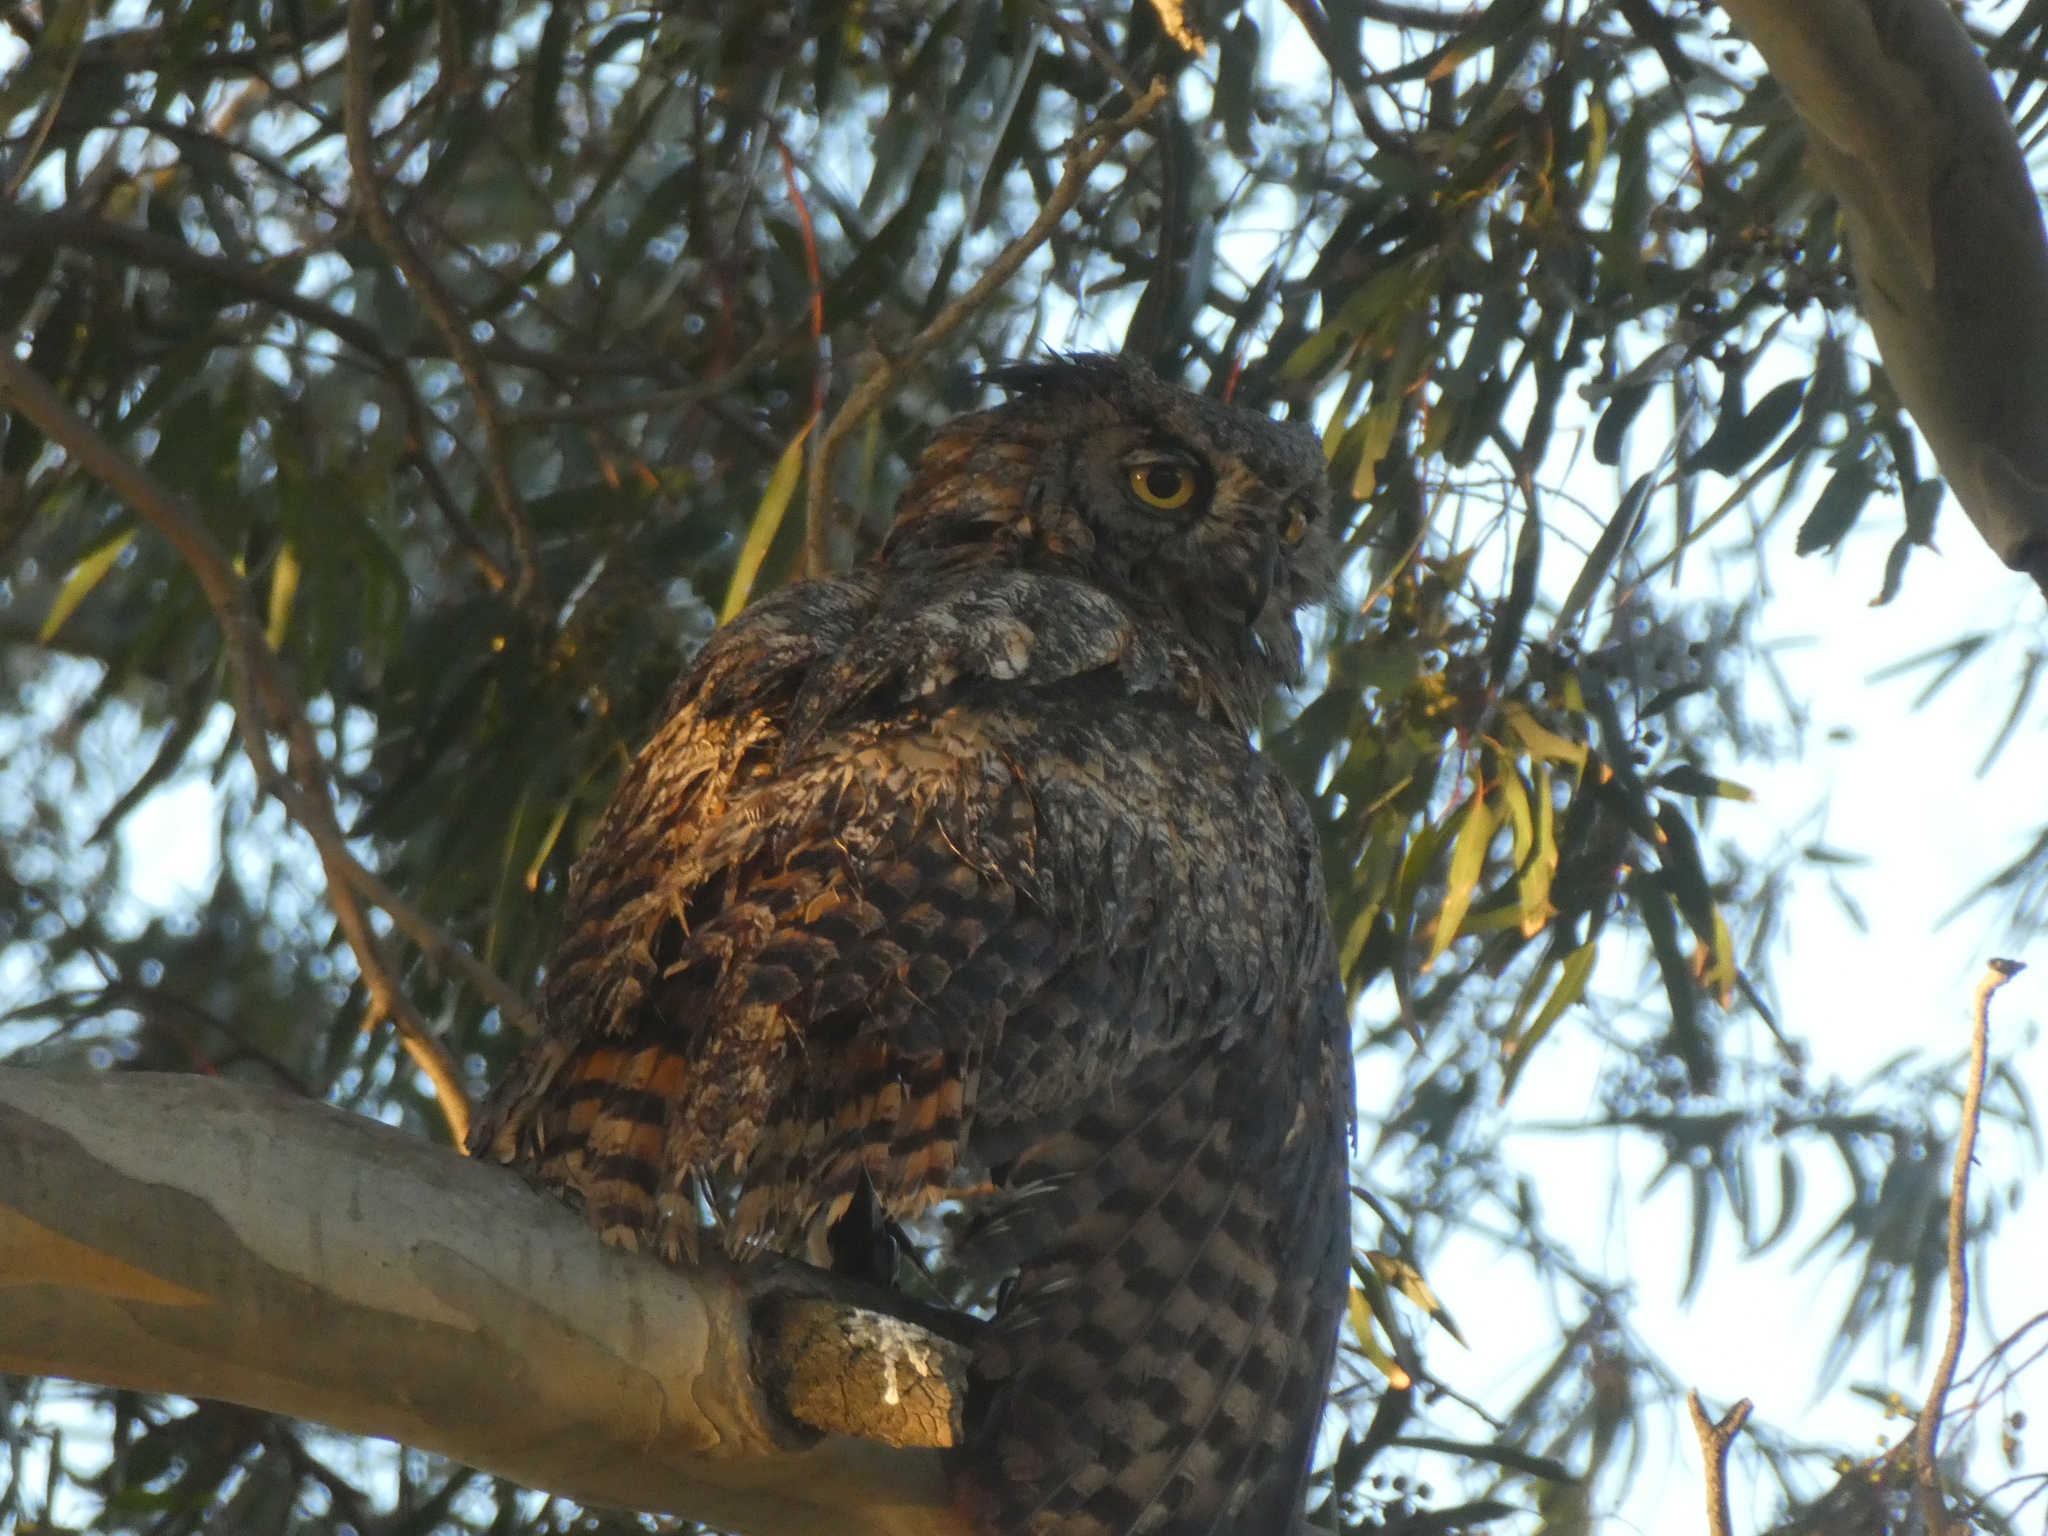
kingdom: Animalia
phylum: Chordata
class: Aves
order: Strigiformes
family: Strigidae
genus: Bubo
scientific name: Bubo virginianus
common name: Great horned owl
